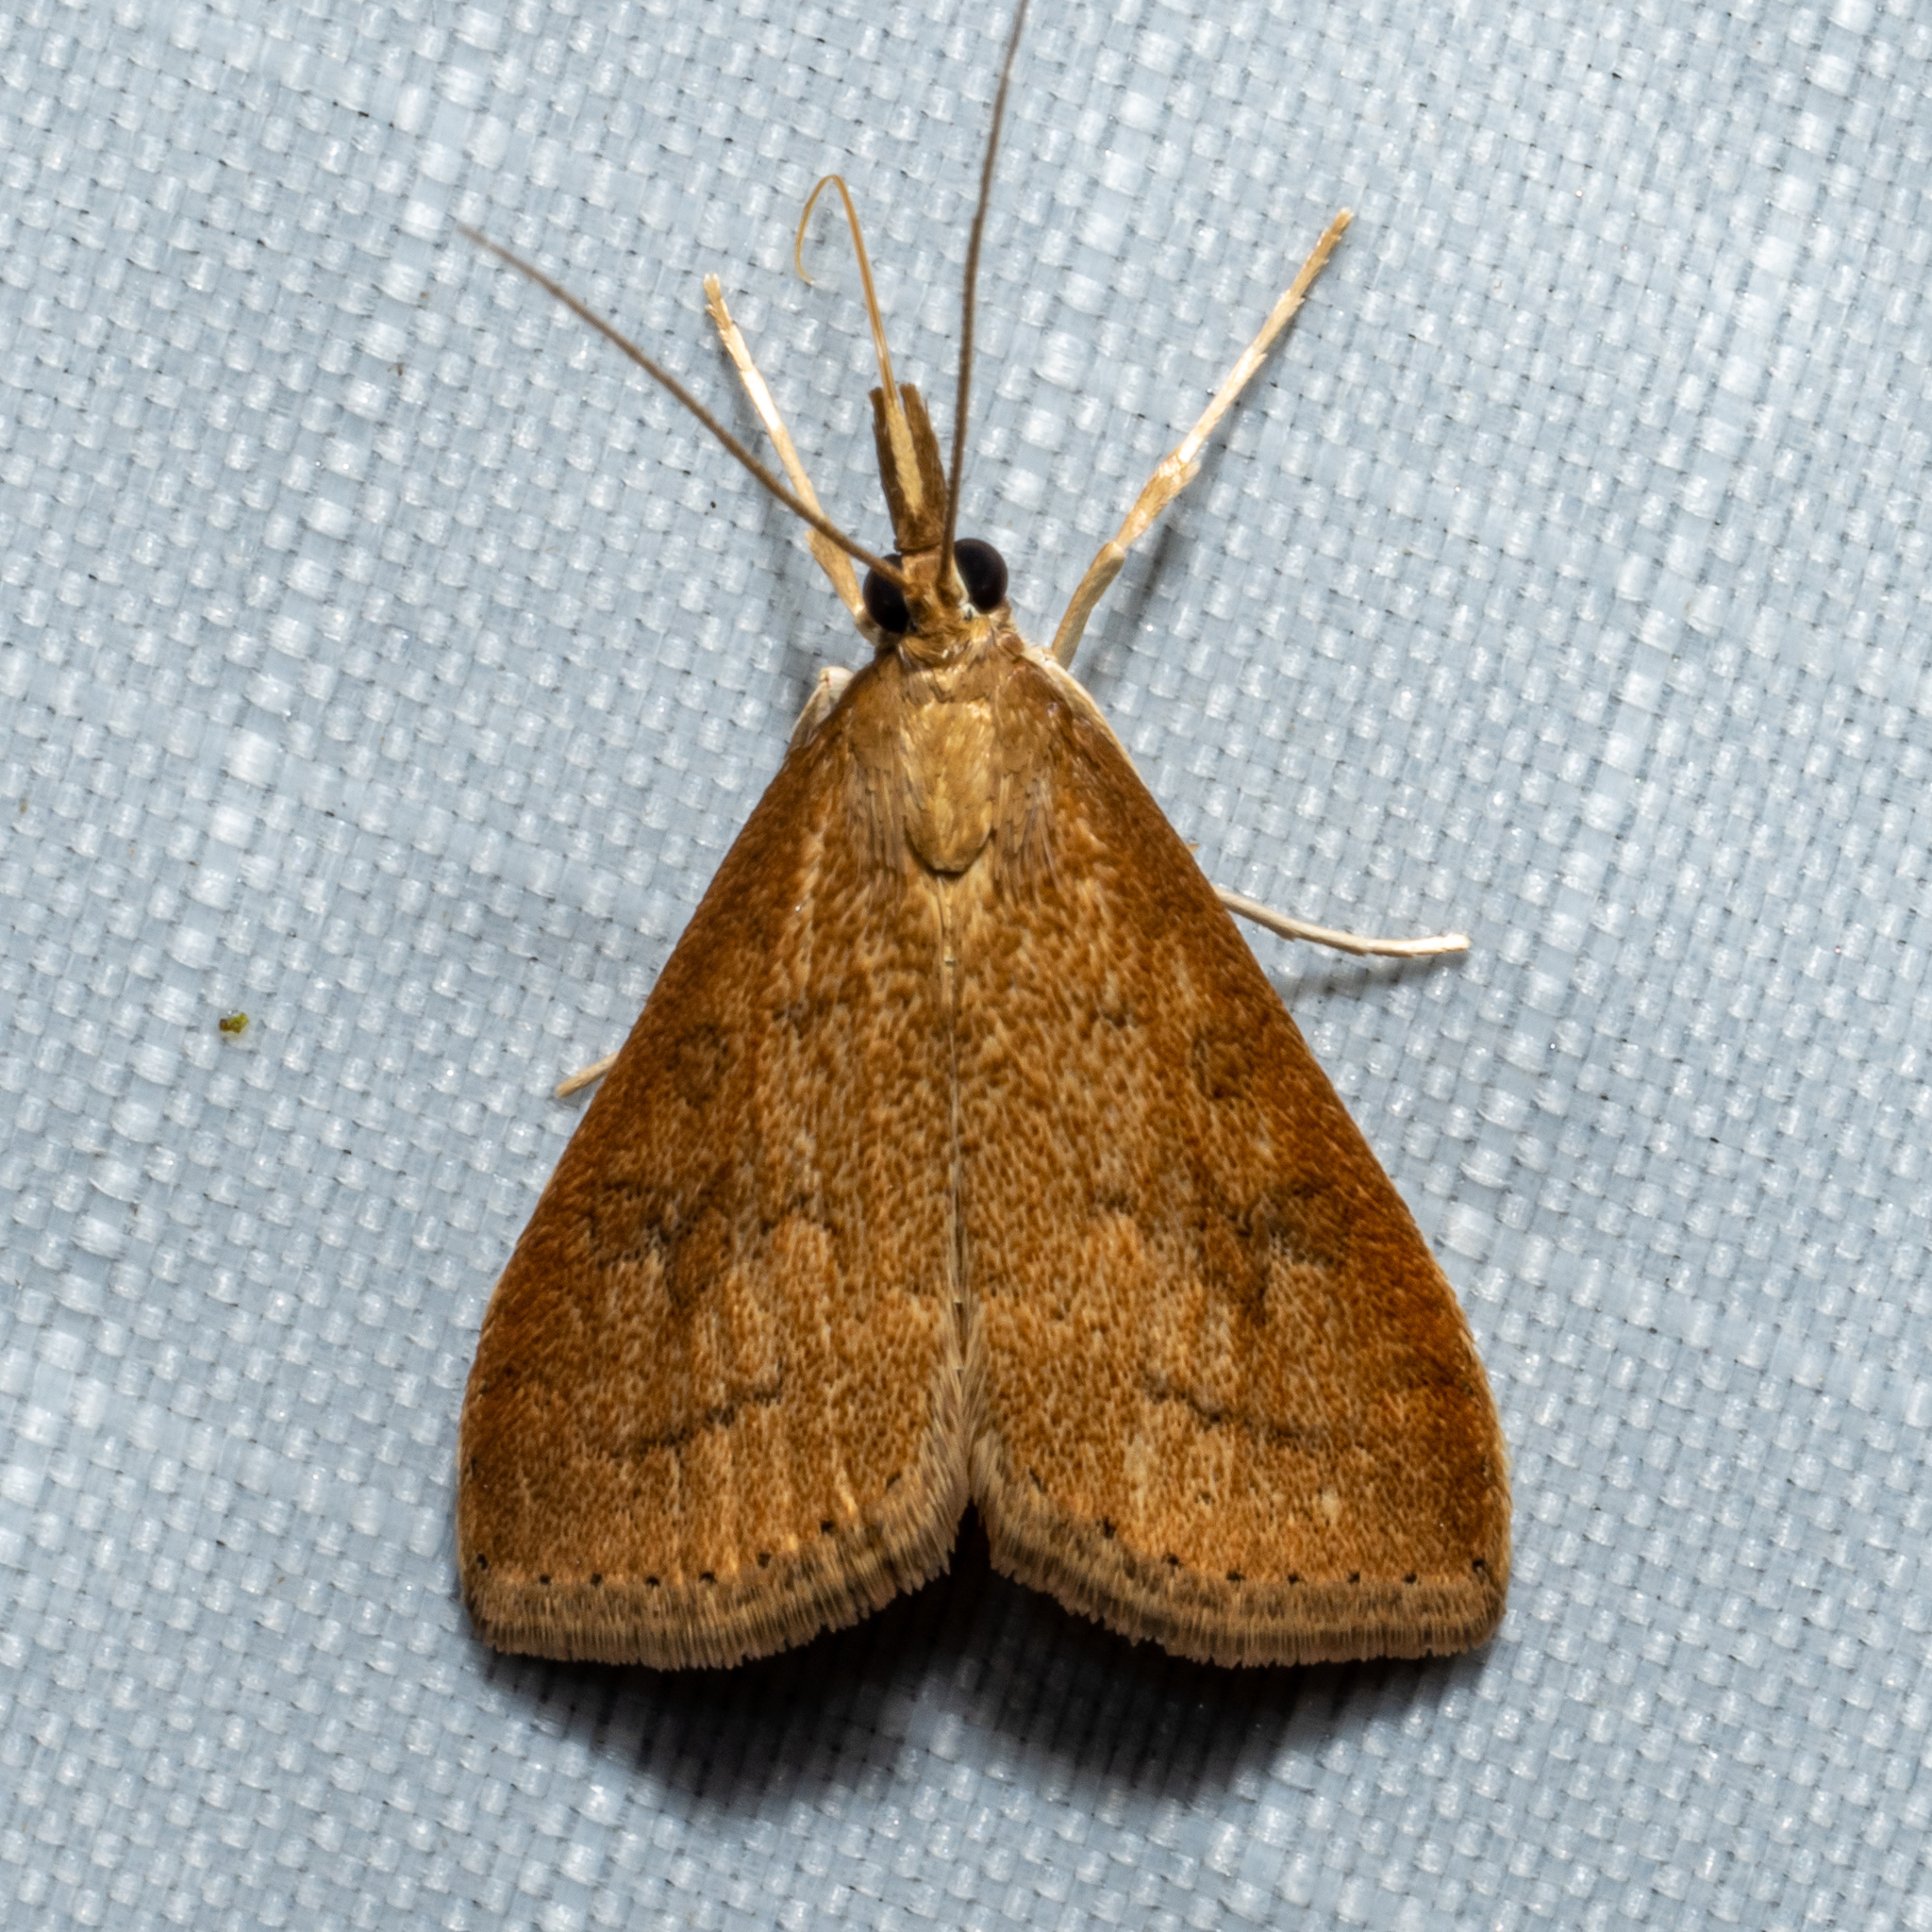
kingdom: Animalia
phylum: Arthropoda
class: Insecta
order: Lepidoptera
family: Crambidae
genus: Udea
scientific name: Udea rubigalis
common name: Celery leaftier moth
